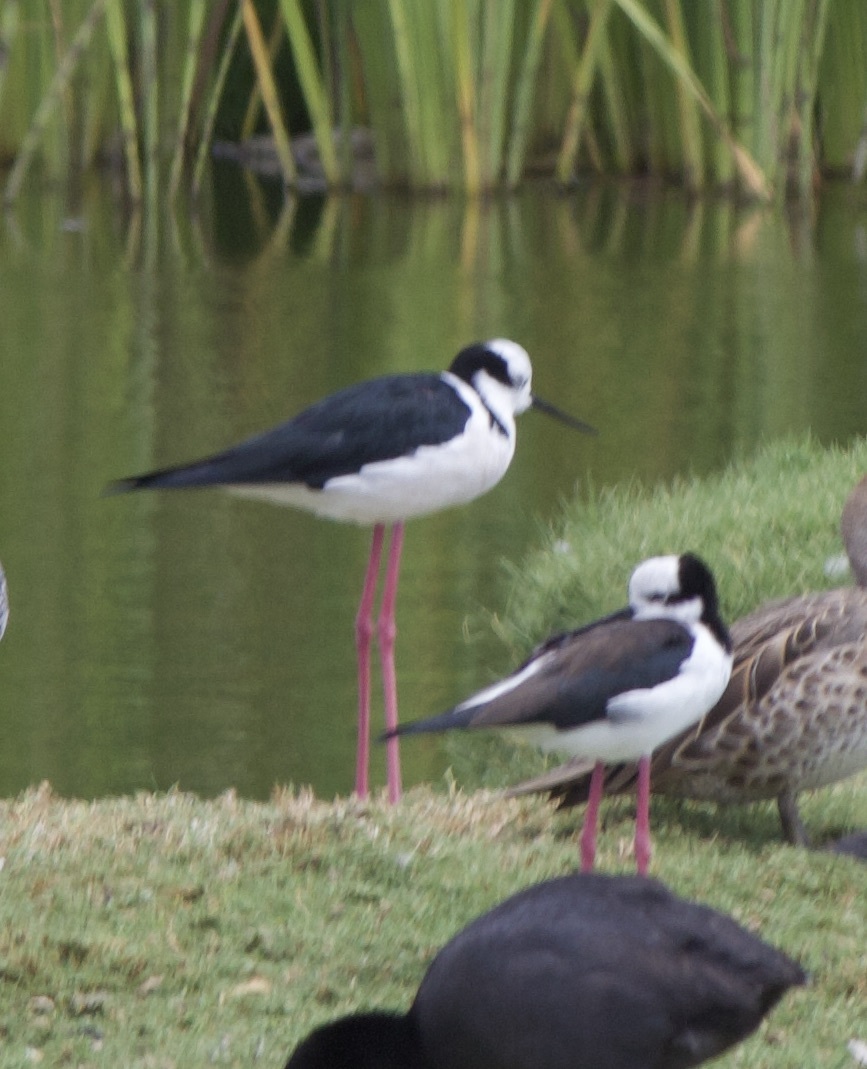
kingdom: Animalia
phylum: Chordata
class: Aves
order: Charadriiformes
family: Recurvirostridae
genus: Himantopus
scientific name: Himantopus mexicanus
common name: Black-necked stilt
